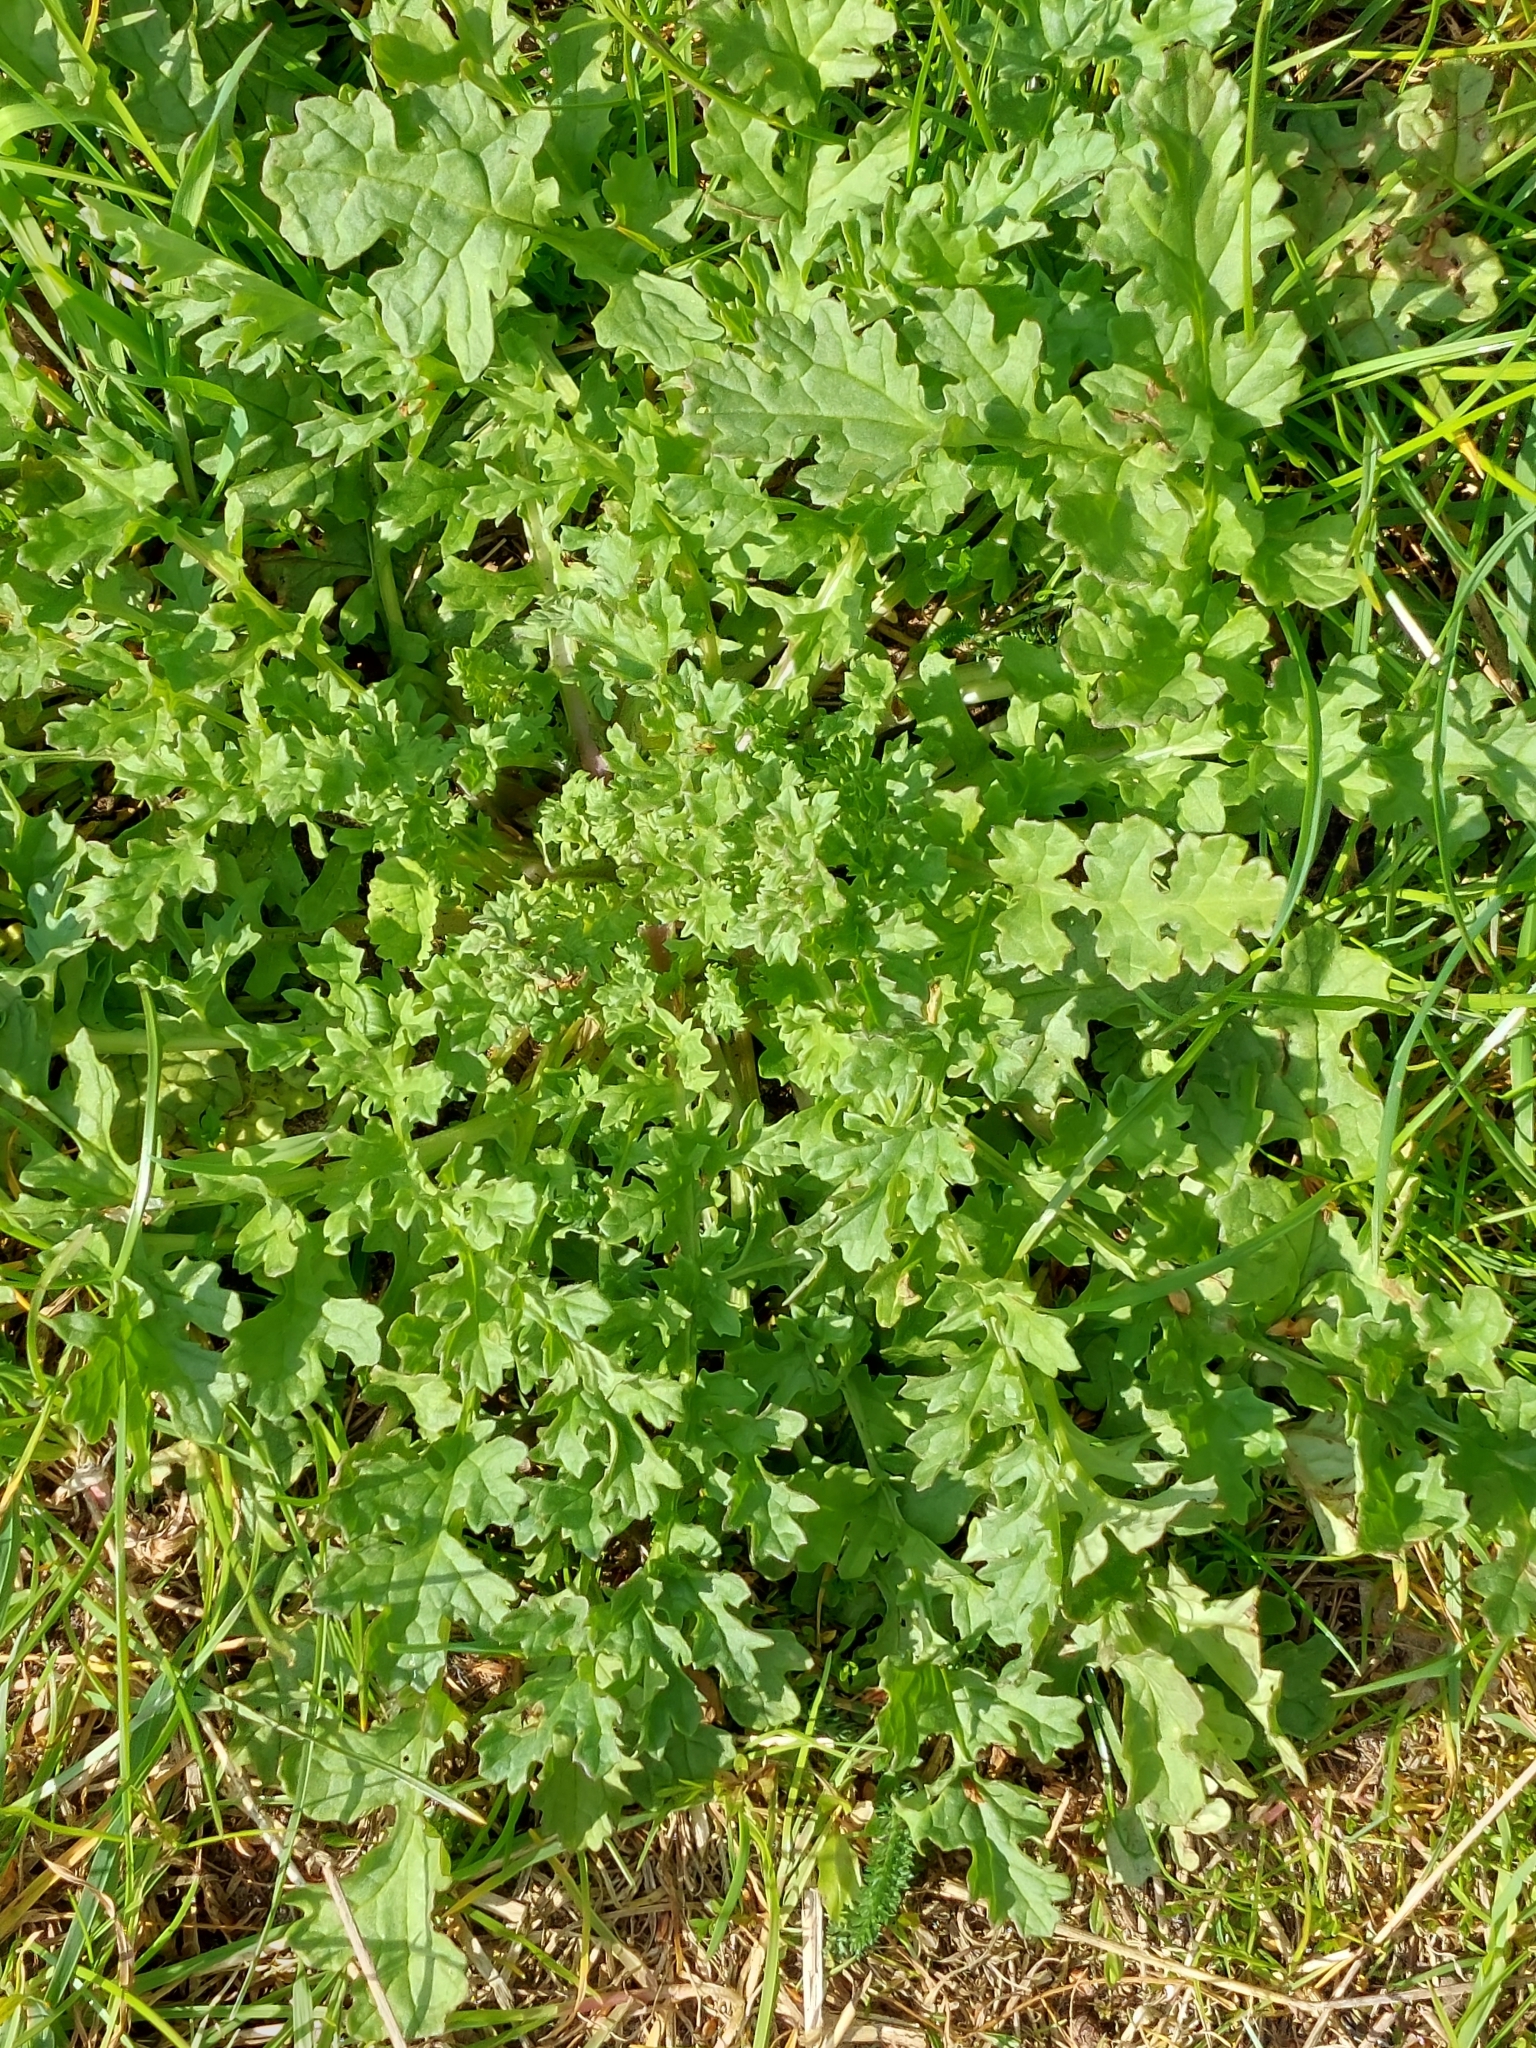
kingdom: Plantae
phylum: Tracheophyta
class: Magnoliopsida
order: Asterales
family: Asteraceae
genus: Jacobaea
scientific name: Jacobaea vulgaris
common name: Stinking willie
